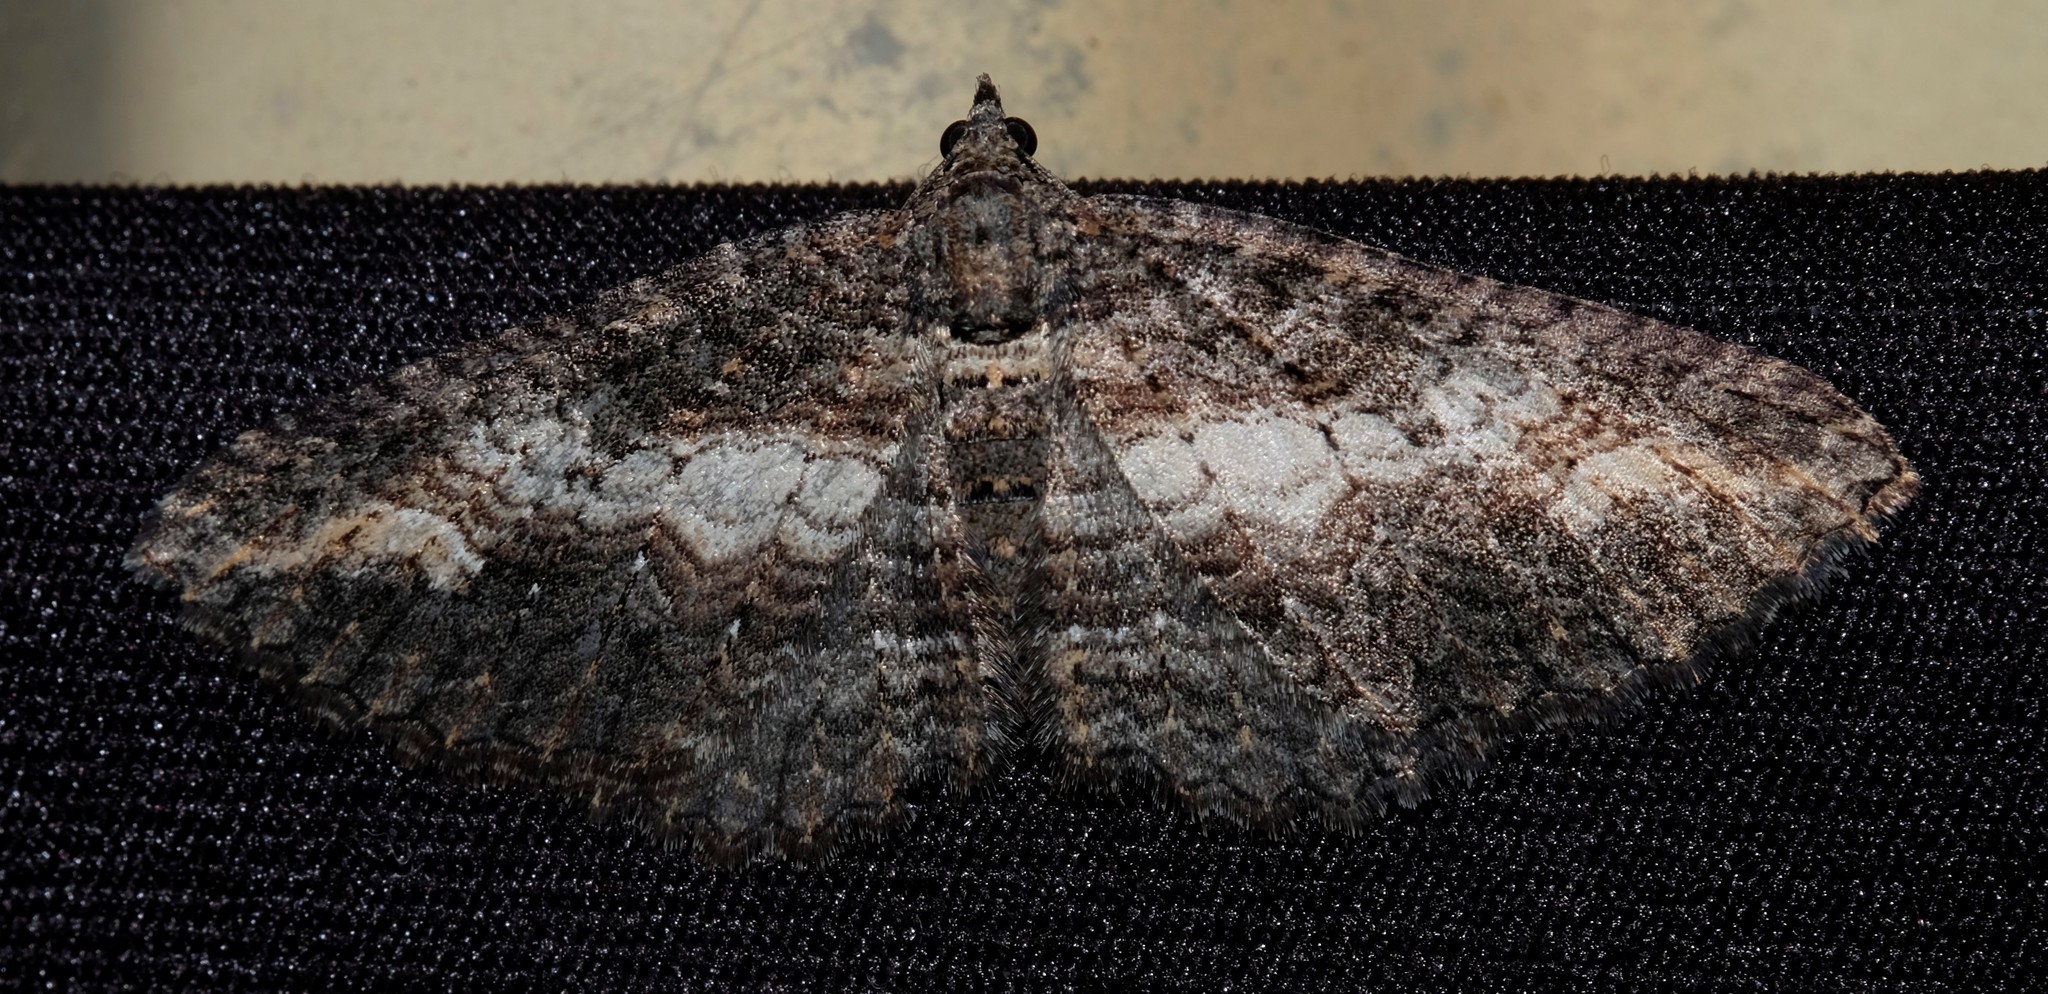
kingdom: Animalia
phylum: Arthropoda
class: Insecta
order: Lepidoptera
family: Geometridae
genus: Eupithecia
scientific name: Eupithecia Eucymatoge scotodes
